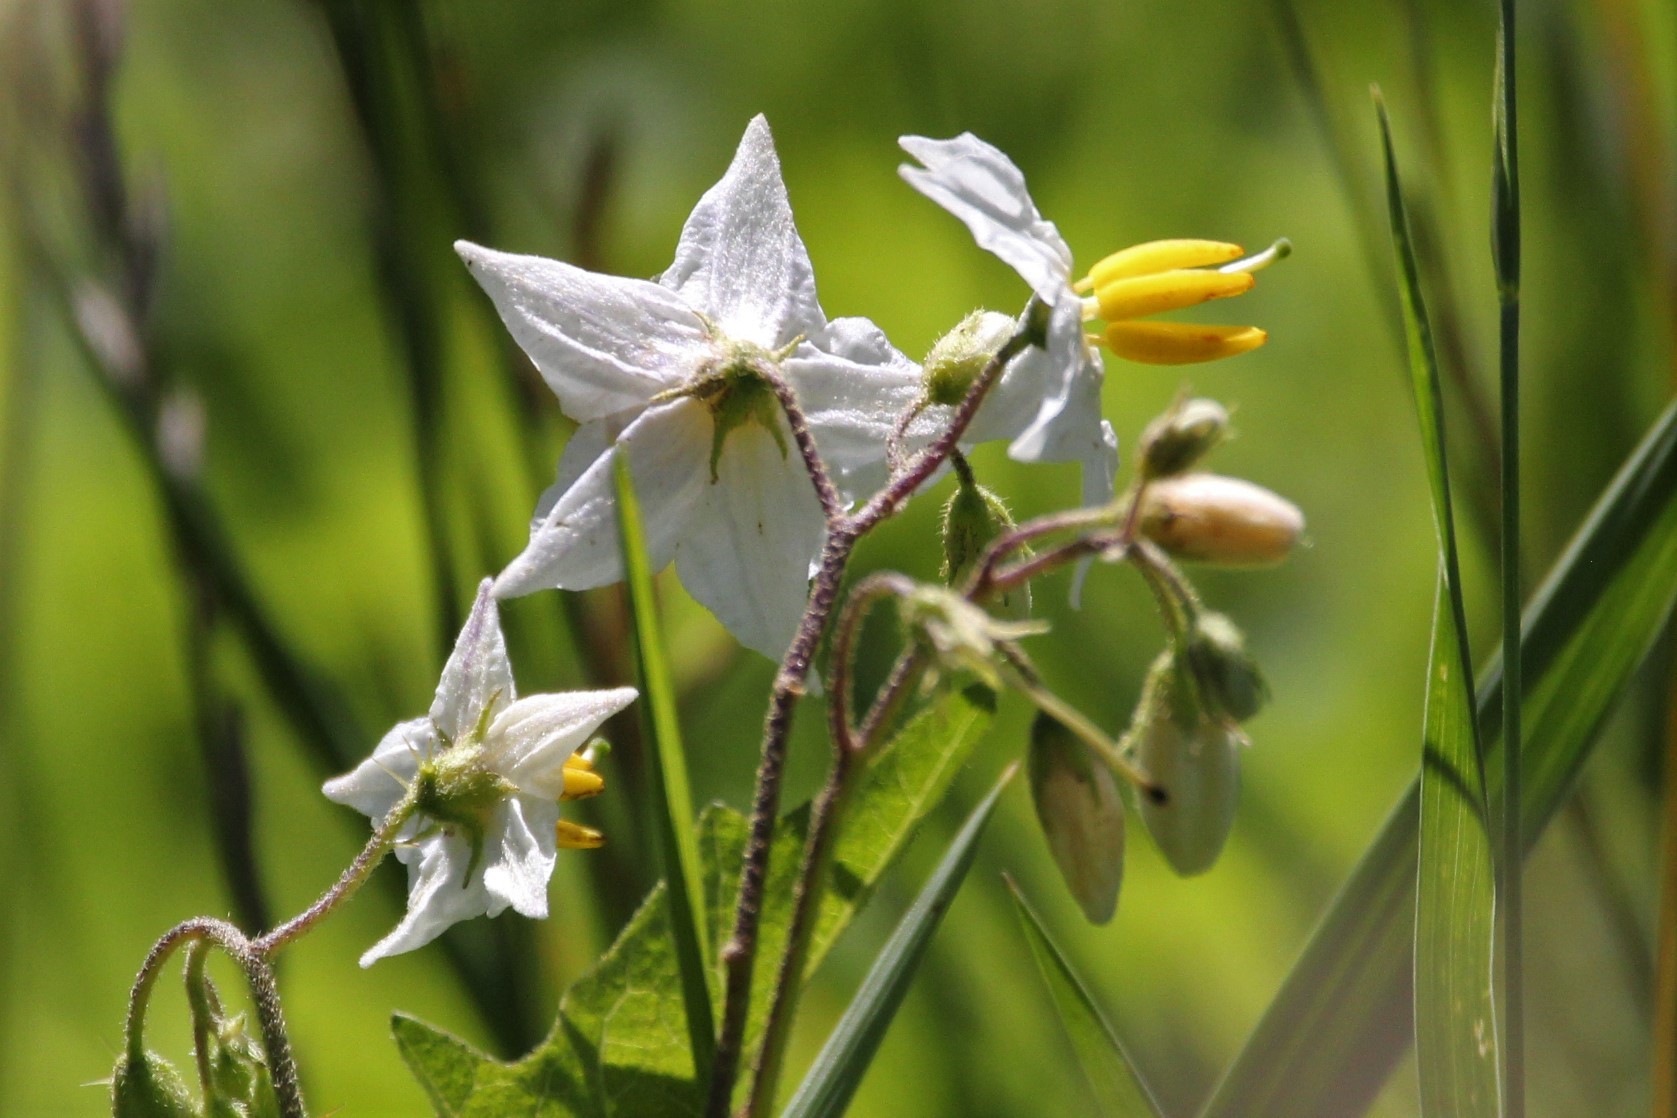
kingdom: Plantae
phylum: Tracheophyta
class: Magnoliopsida
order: Solanales
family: Solanaceae
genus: Solanum
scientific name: Solanum carolinense
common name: Horse-nettle
